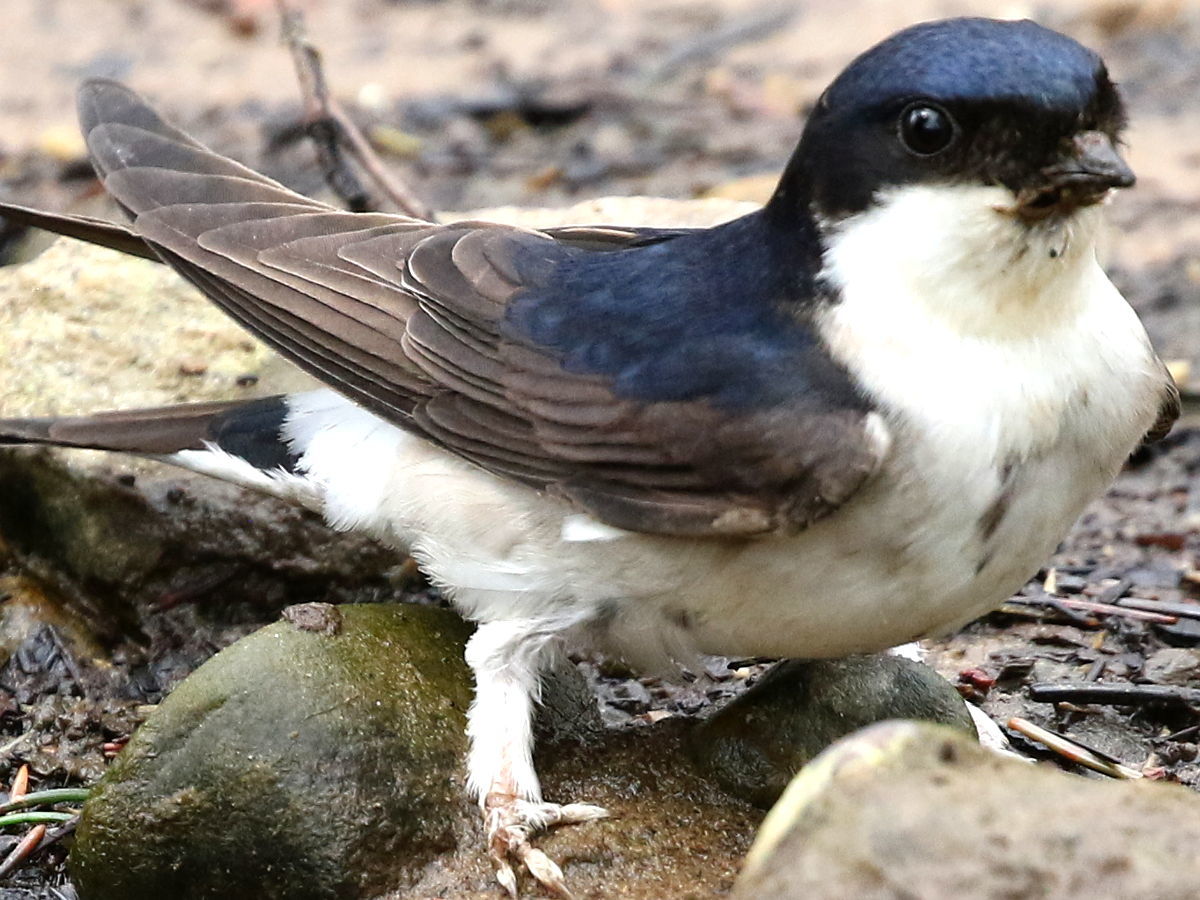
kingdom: Animalia
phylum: Chordata
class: Aves
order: Passeriformes
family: Hirundinidae
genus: Delichon
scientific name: Delichon urbicum
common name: Common house martin
